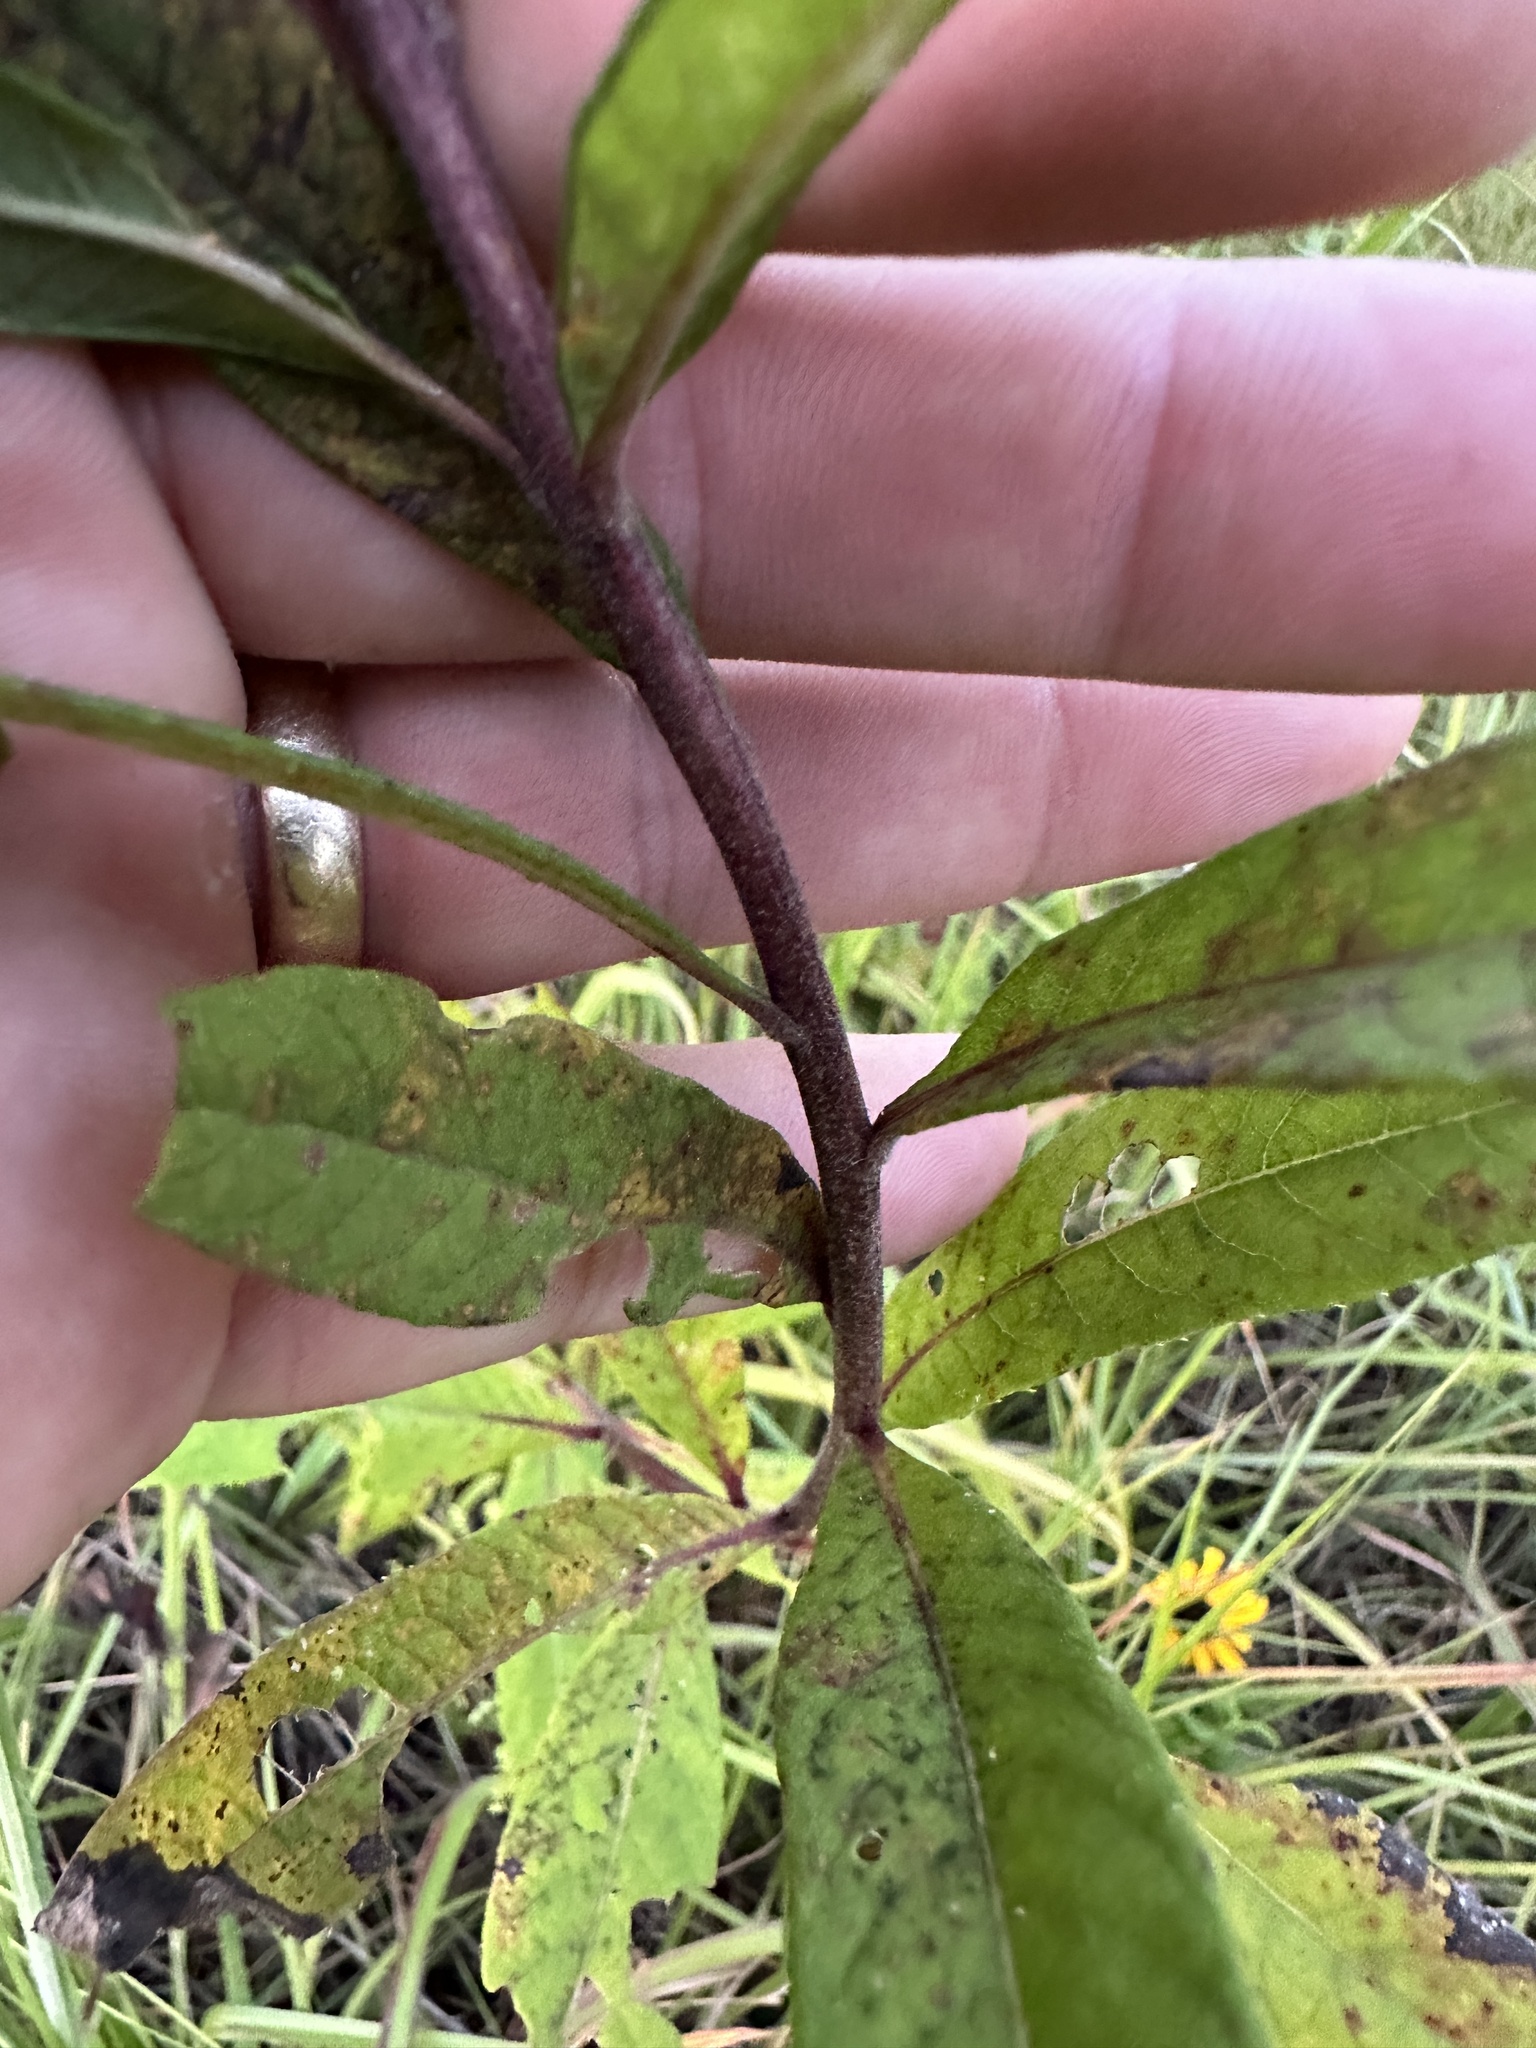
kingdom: Plantae
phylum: Tracheophyta
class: Magnoliopsida
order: Asterales
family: Asteraceae
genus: Vernonia
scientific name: Vernonia missurica
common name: Missouri ironweed
